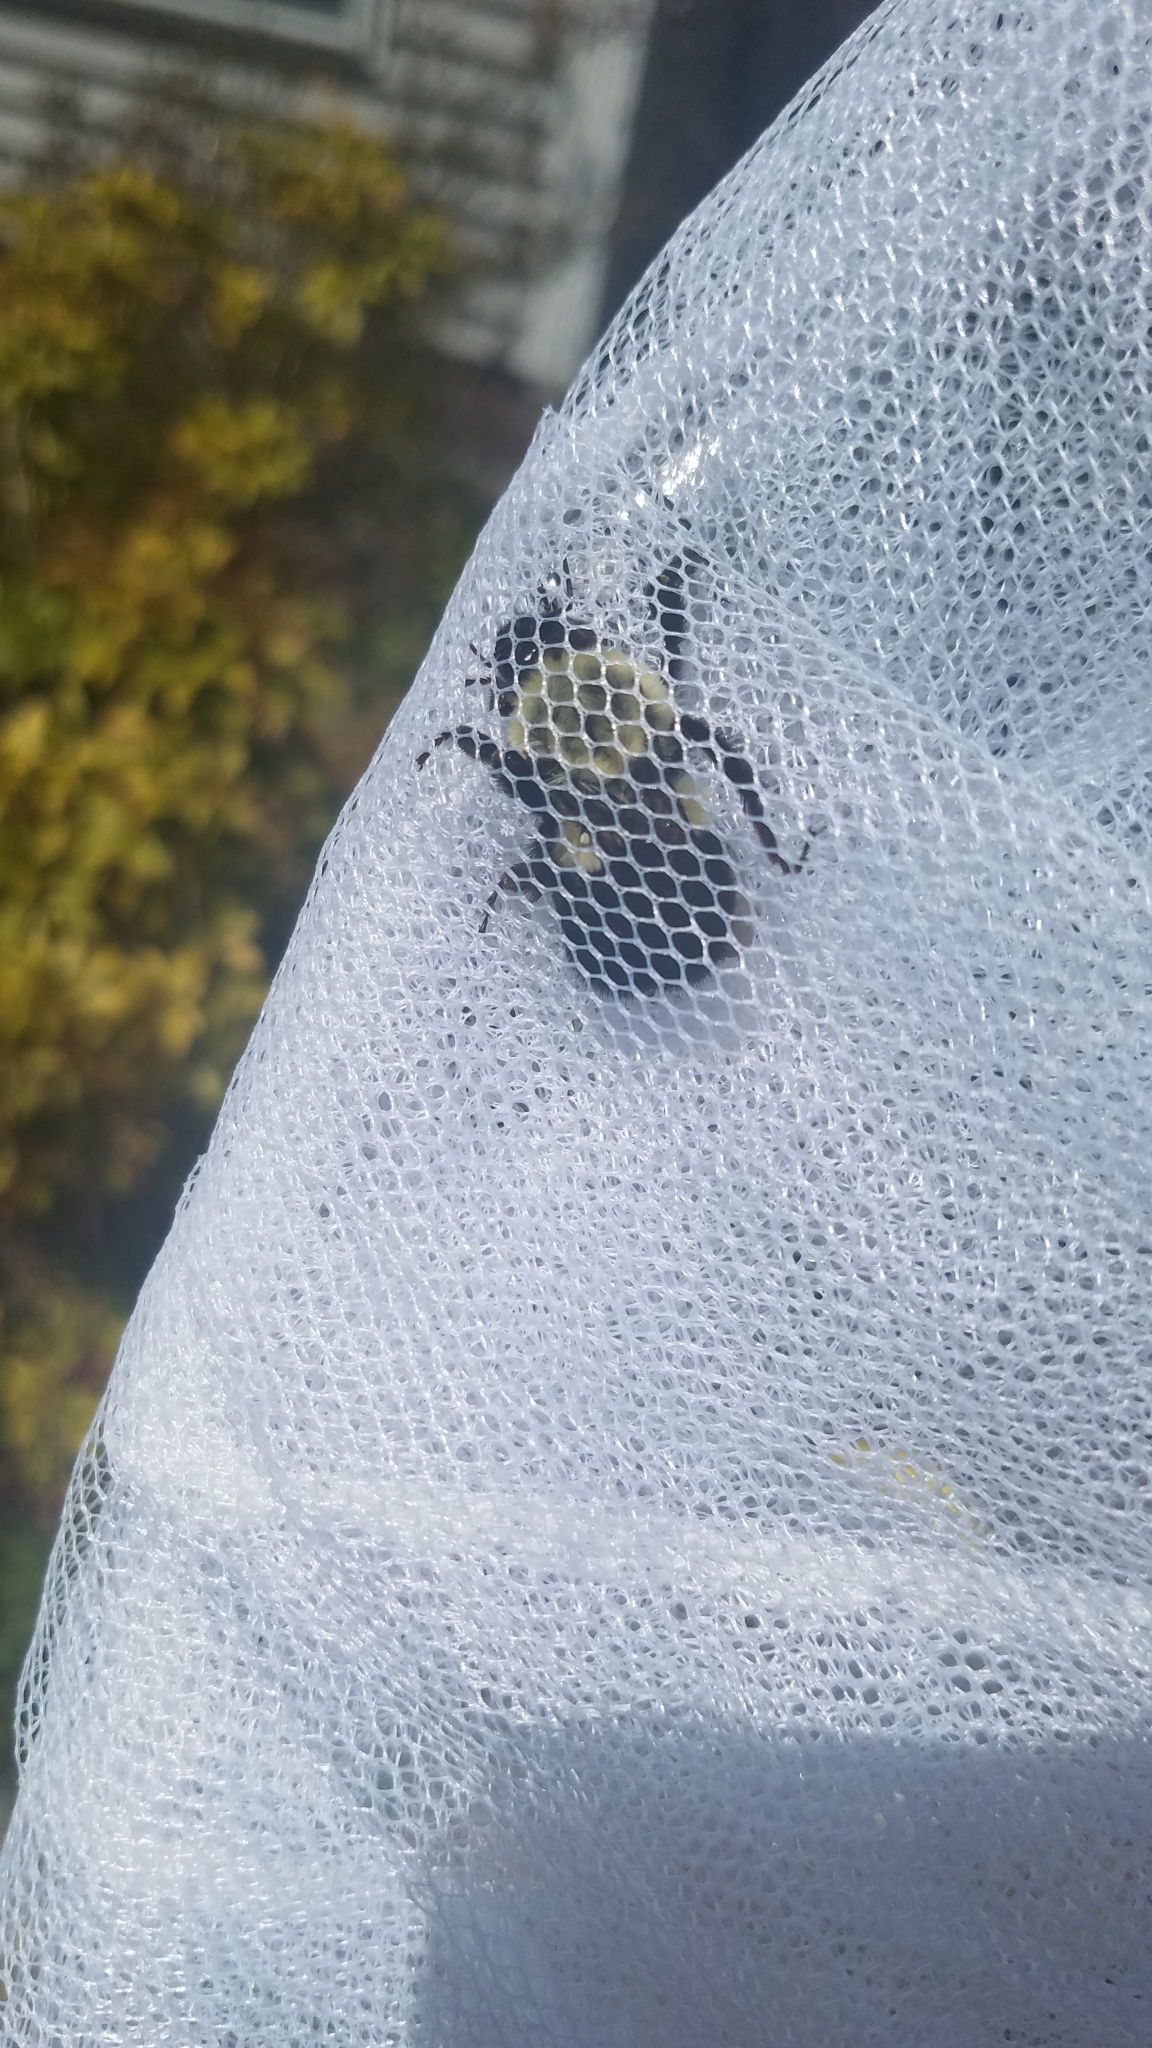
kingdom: Animalia
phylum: Arthropoda
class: Insecta
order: Hymenoptera
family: Apidae
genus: Bombus
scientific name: Bombus impatiens
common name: Common eastern bumble bee
